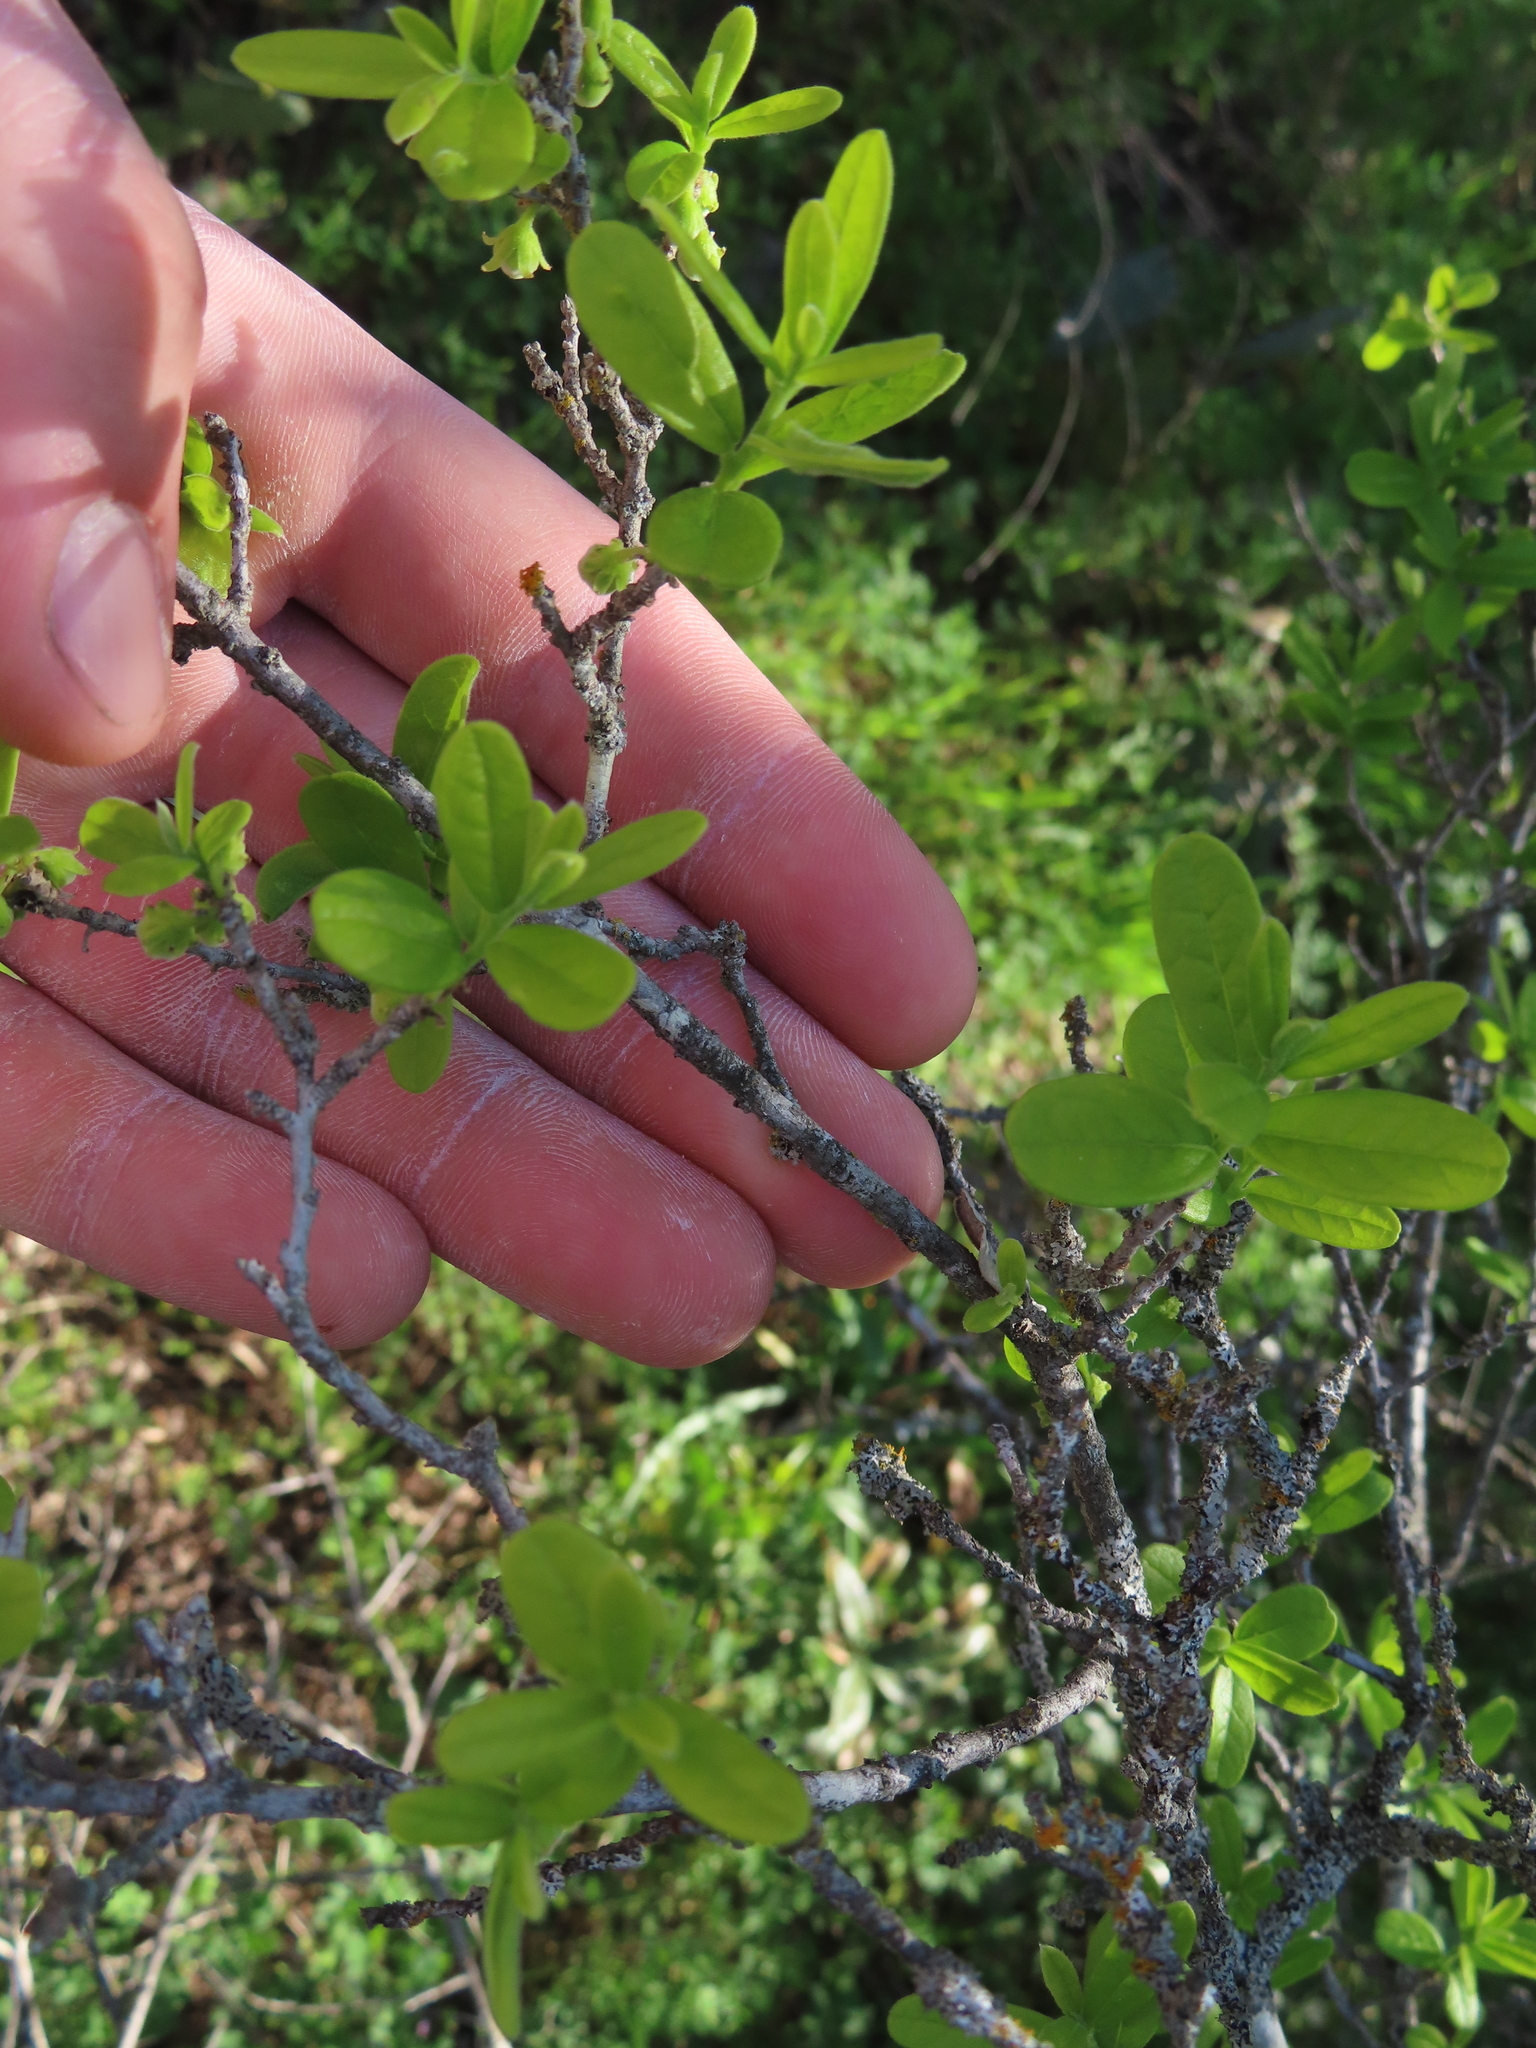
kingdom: Plantae
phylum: Tracheophyta
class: Magnoliopsida
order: Ericales
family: Ebenaceae
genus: Diospyros
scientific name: Diospyros texana
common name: Texas persimmon
